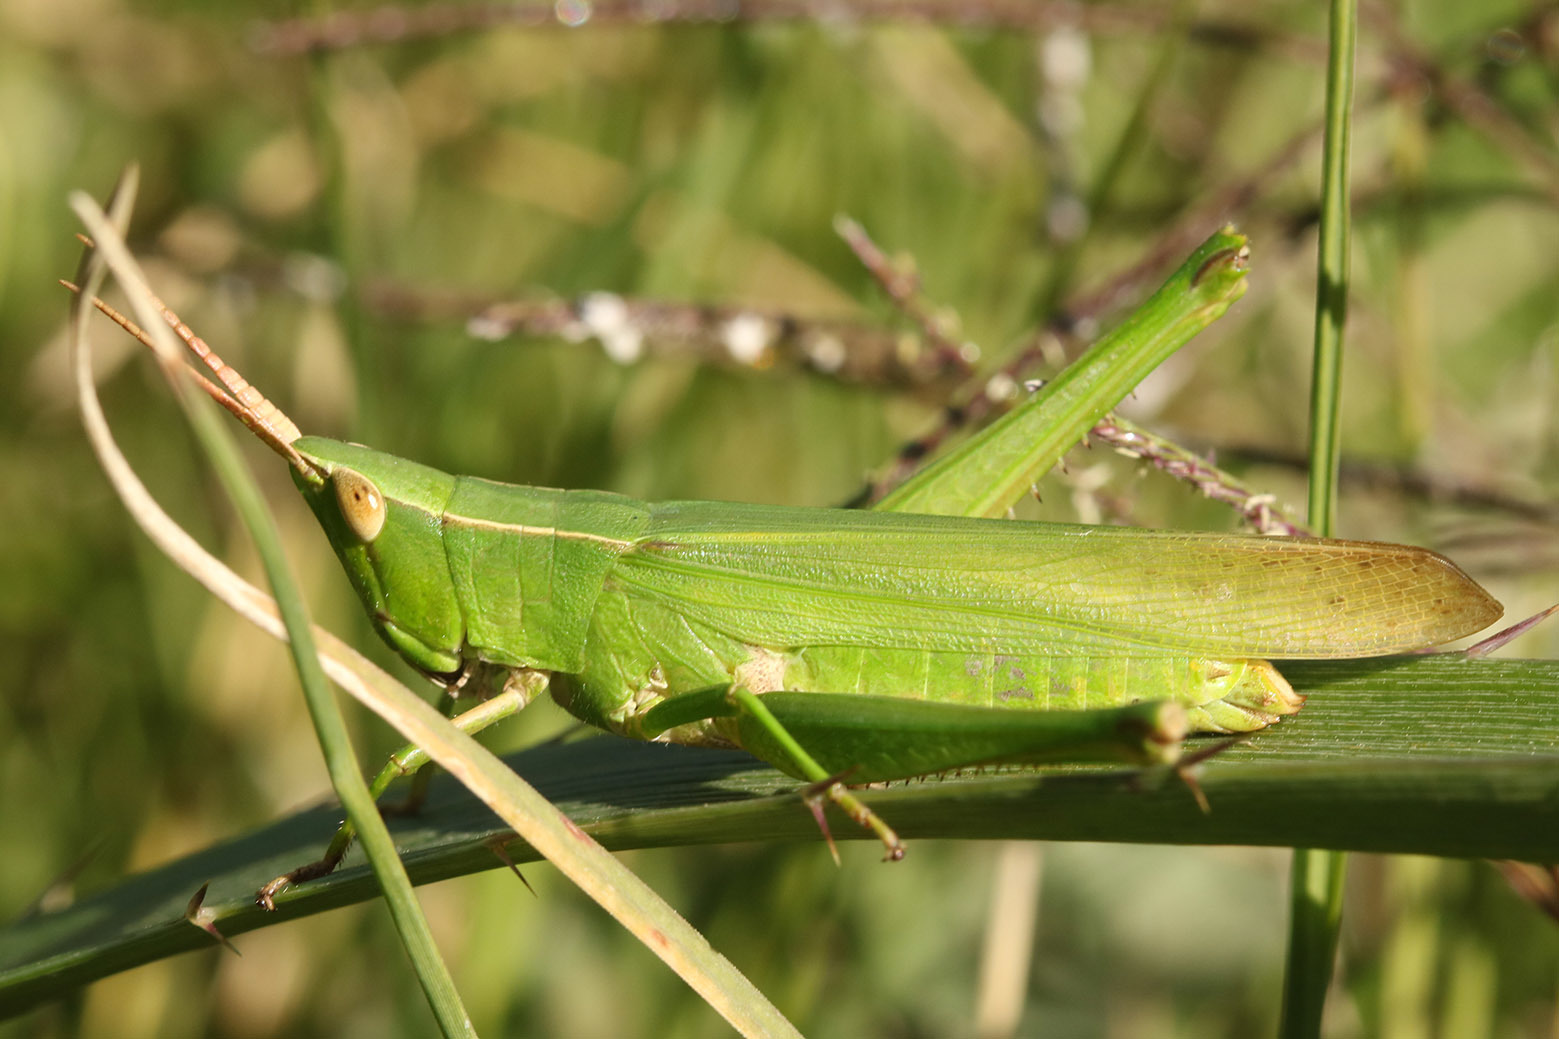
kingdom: Animalia
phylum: Arthropoda
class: Insecta
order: Orthoptera
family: Acrididae
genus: Metaleptea
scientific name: Metaleptea adspersa
